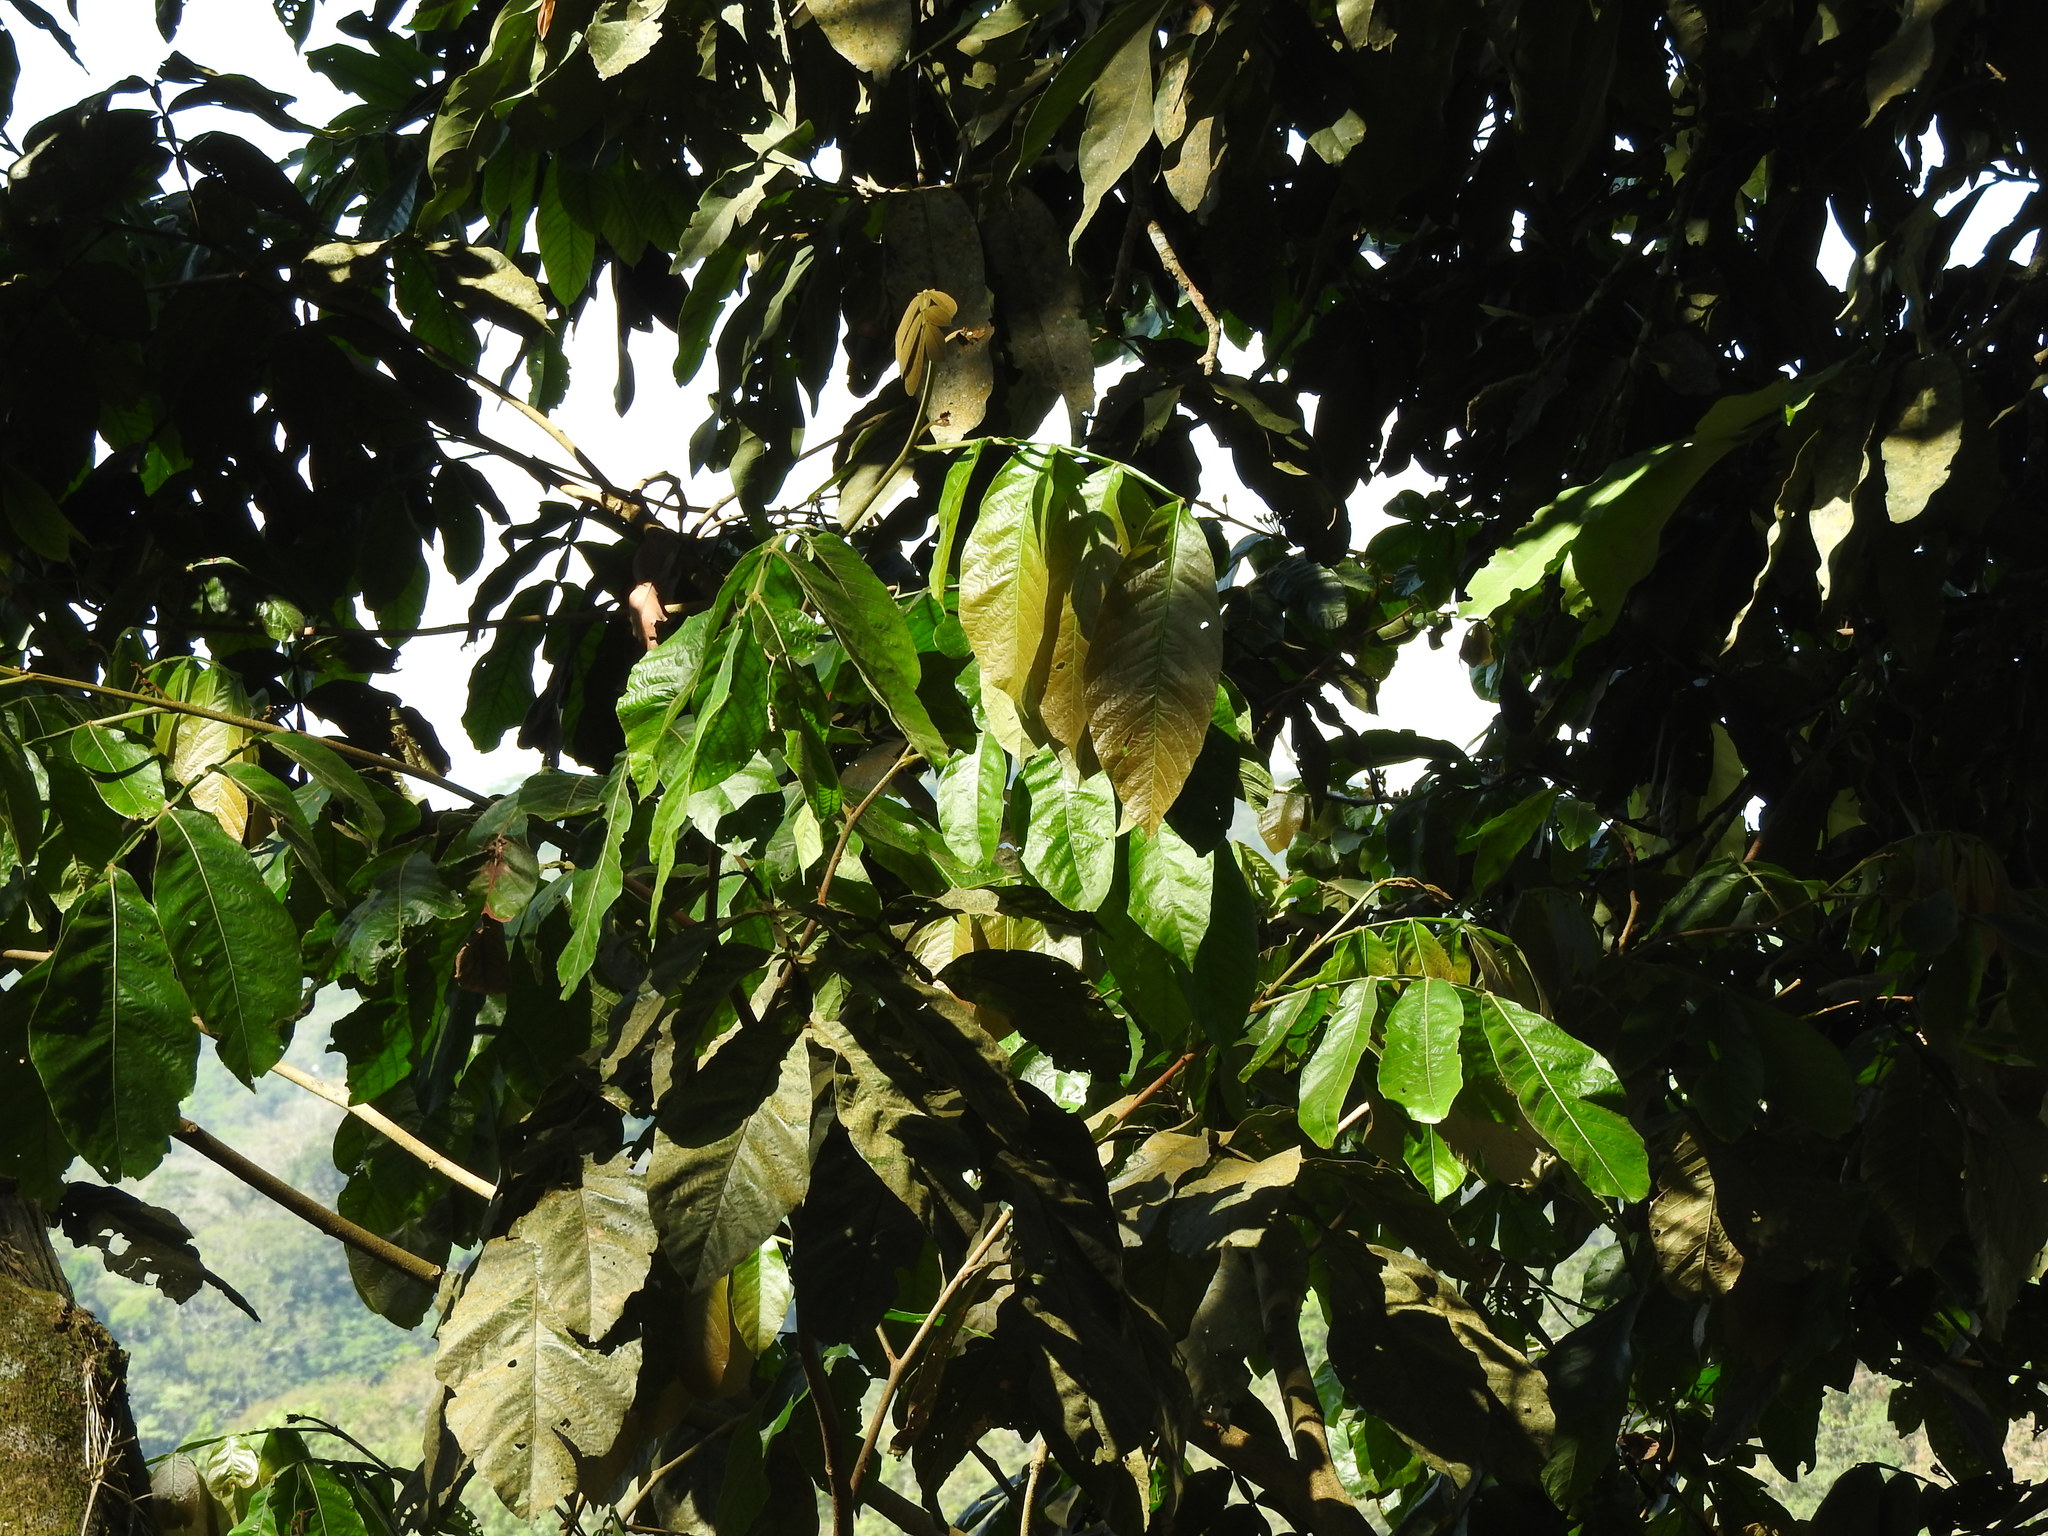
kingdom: Plantae
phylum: Tracheophyta
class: Magnoliopsida
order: Fabales
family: Fabaceae
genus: Inga
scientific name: Inga vera
